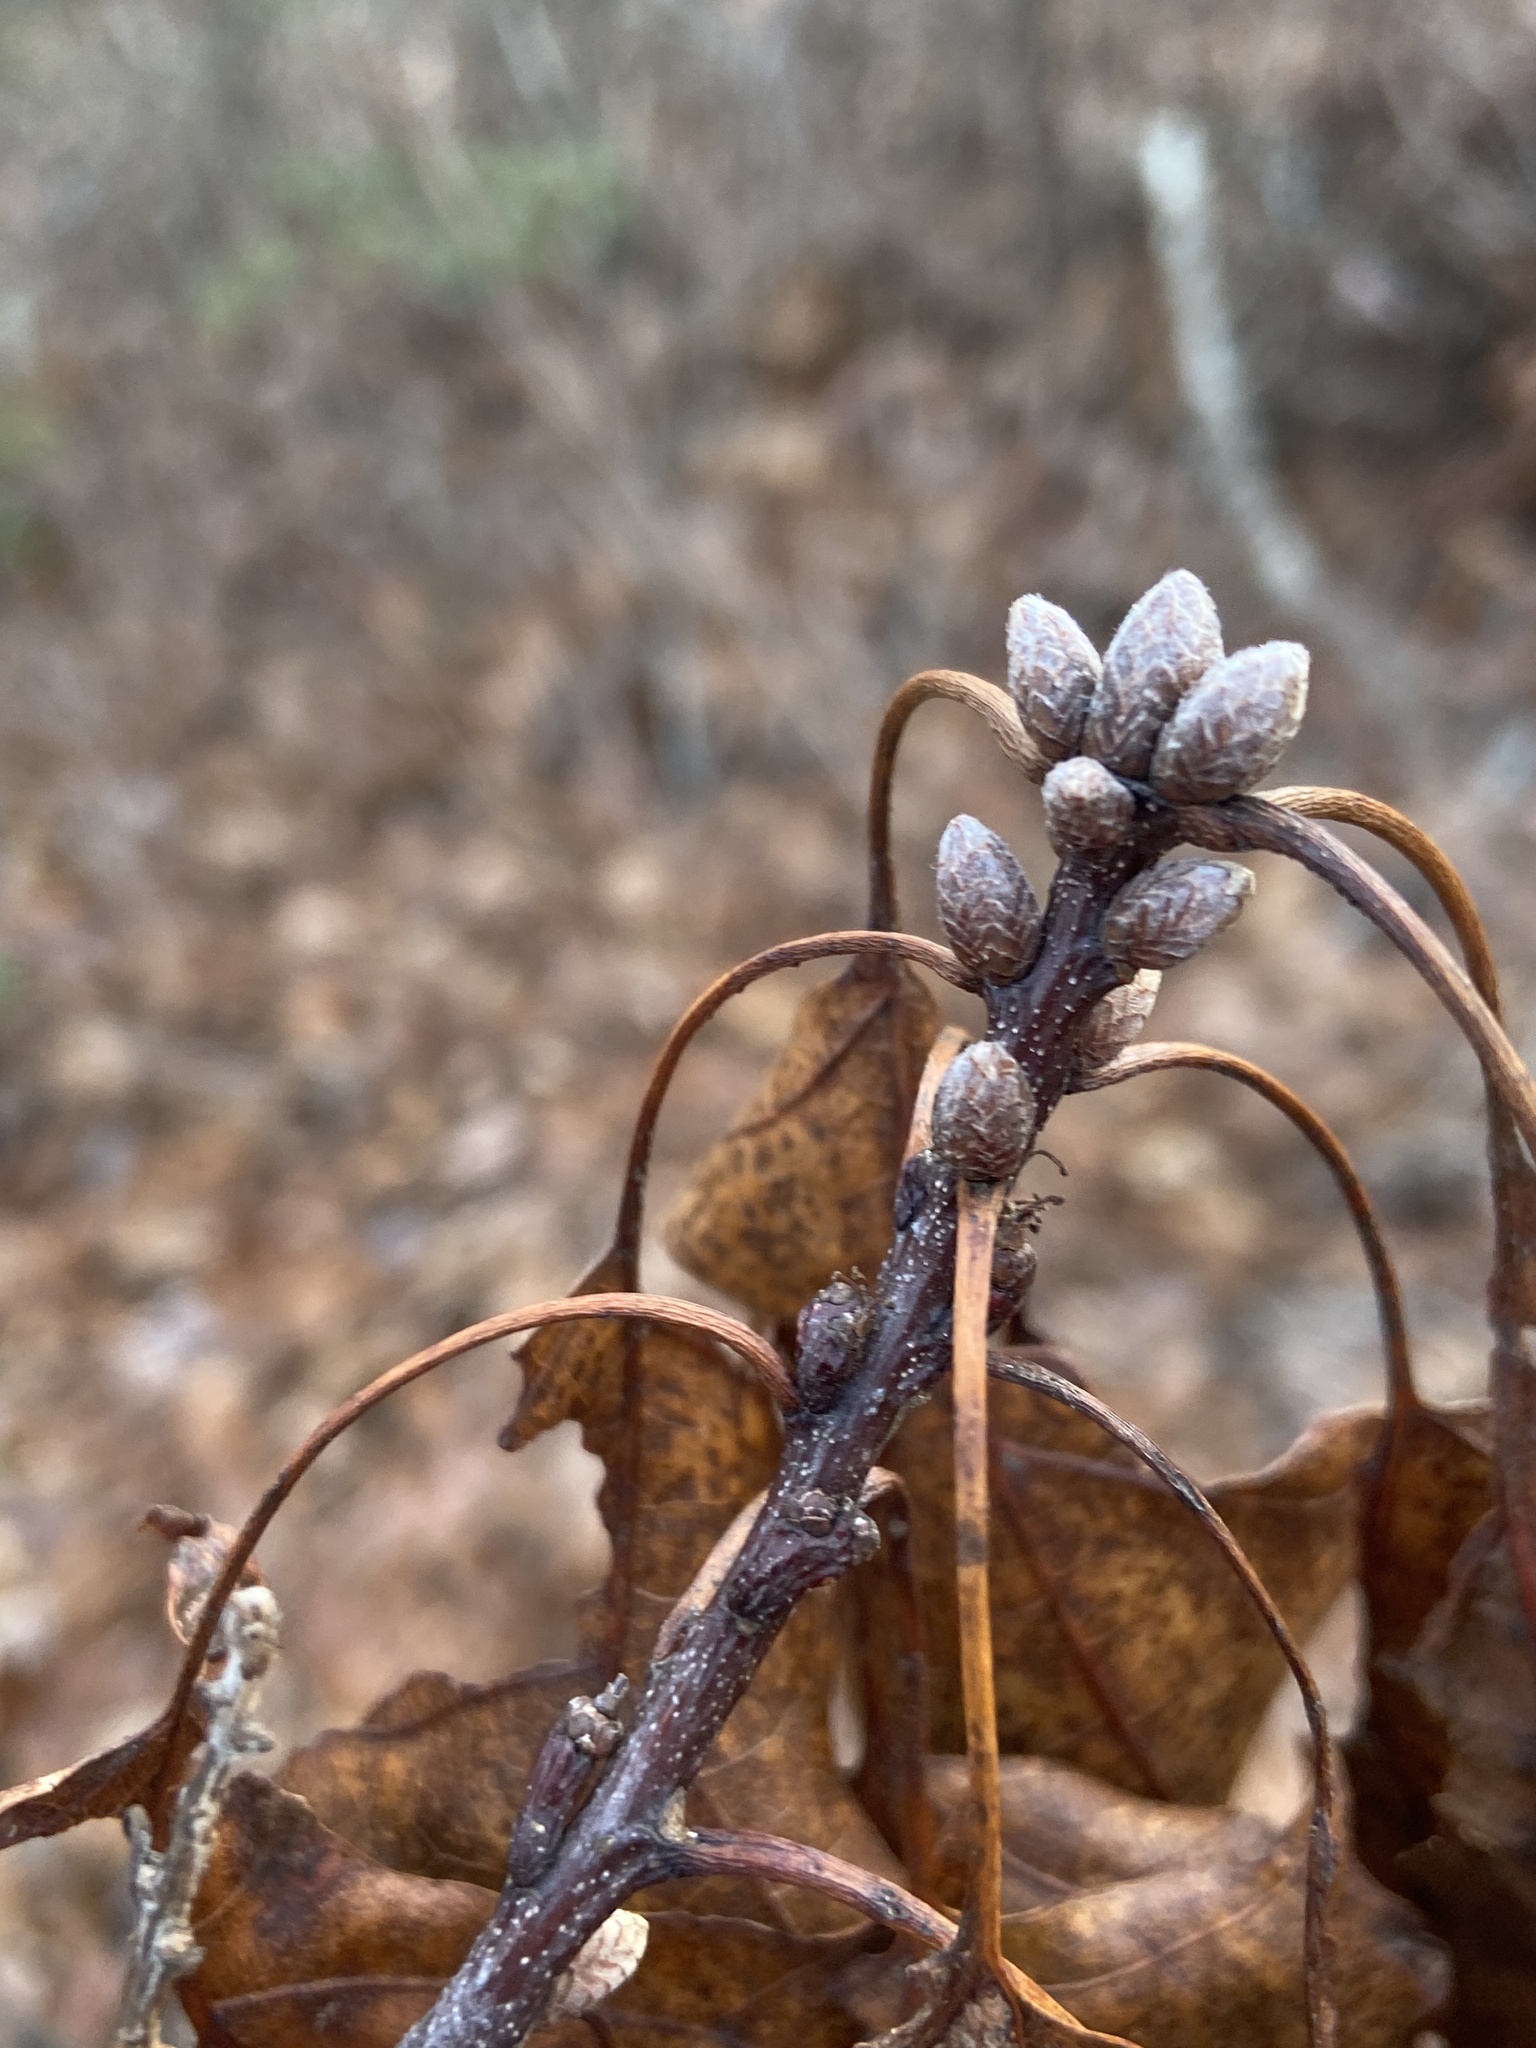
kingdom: Plantae
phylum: Tracheophyta
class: Magnoliopsida
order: Fagales
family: Fagaceae
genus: Quercus
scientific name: Quercus coccinea
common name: Scarlet oak
